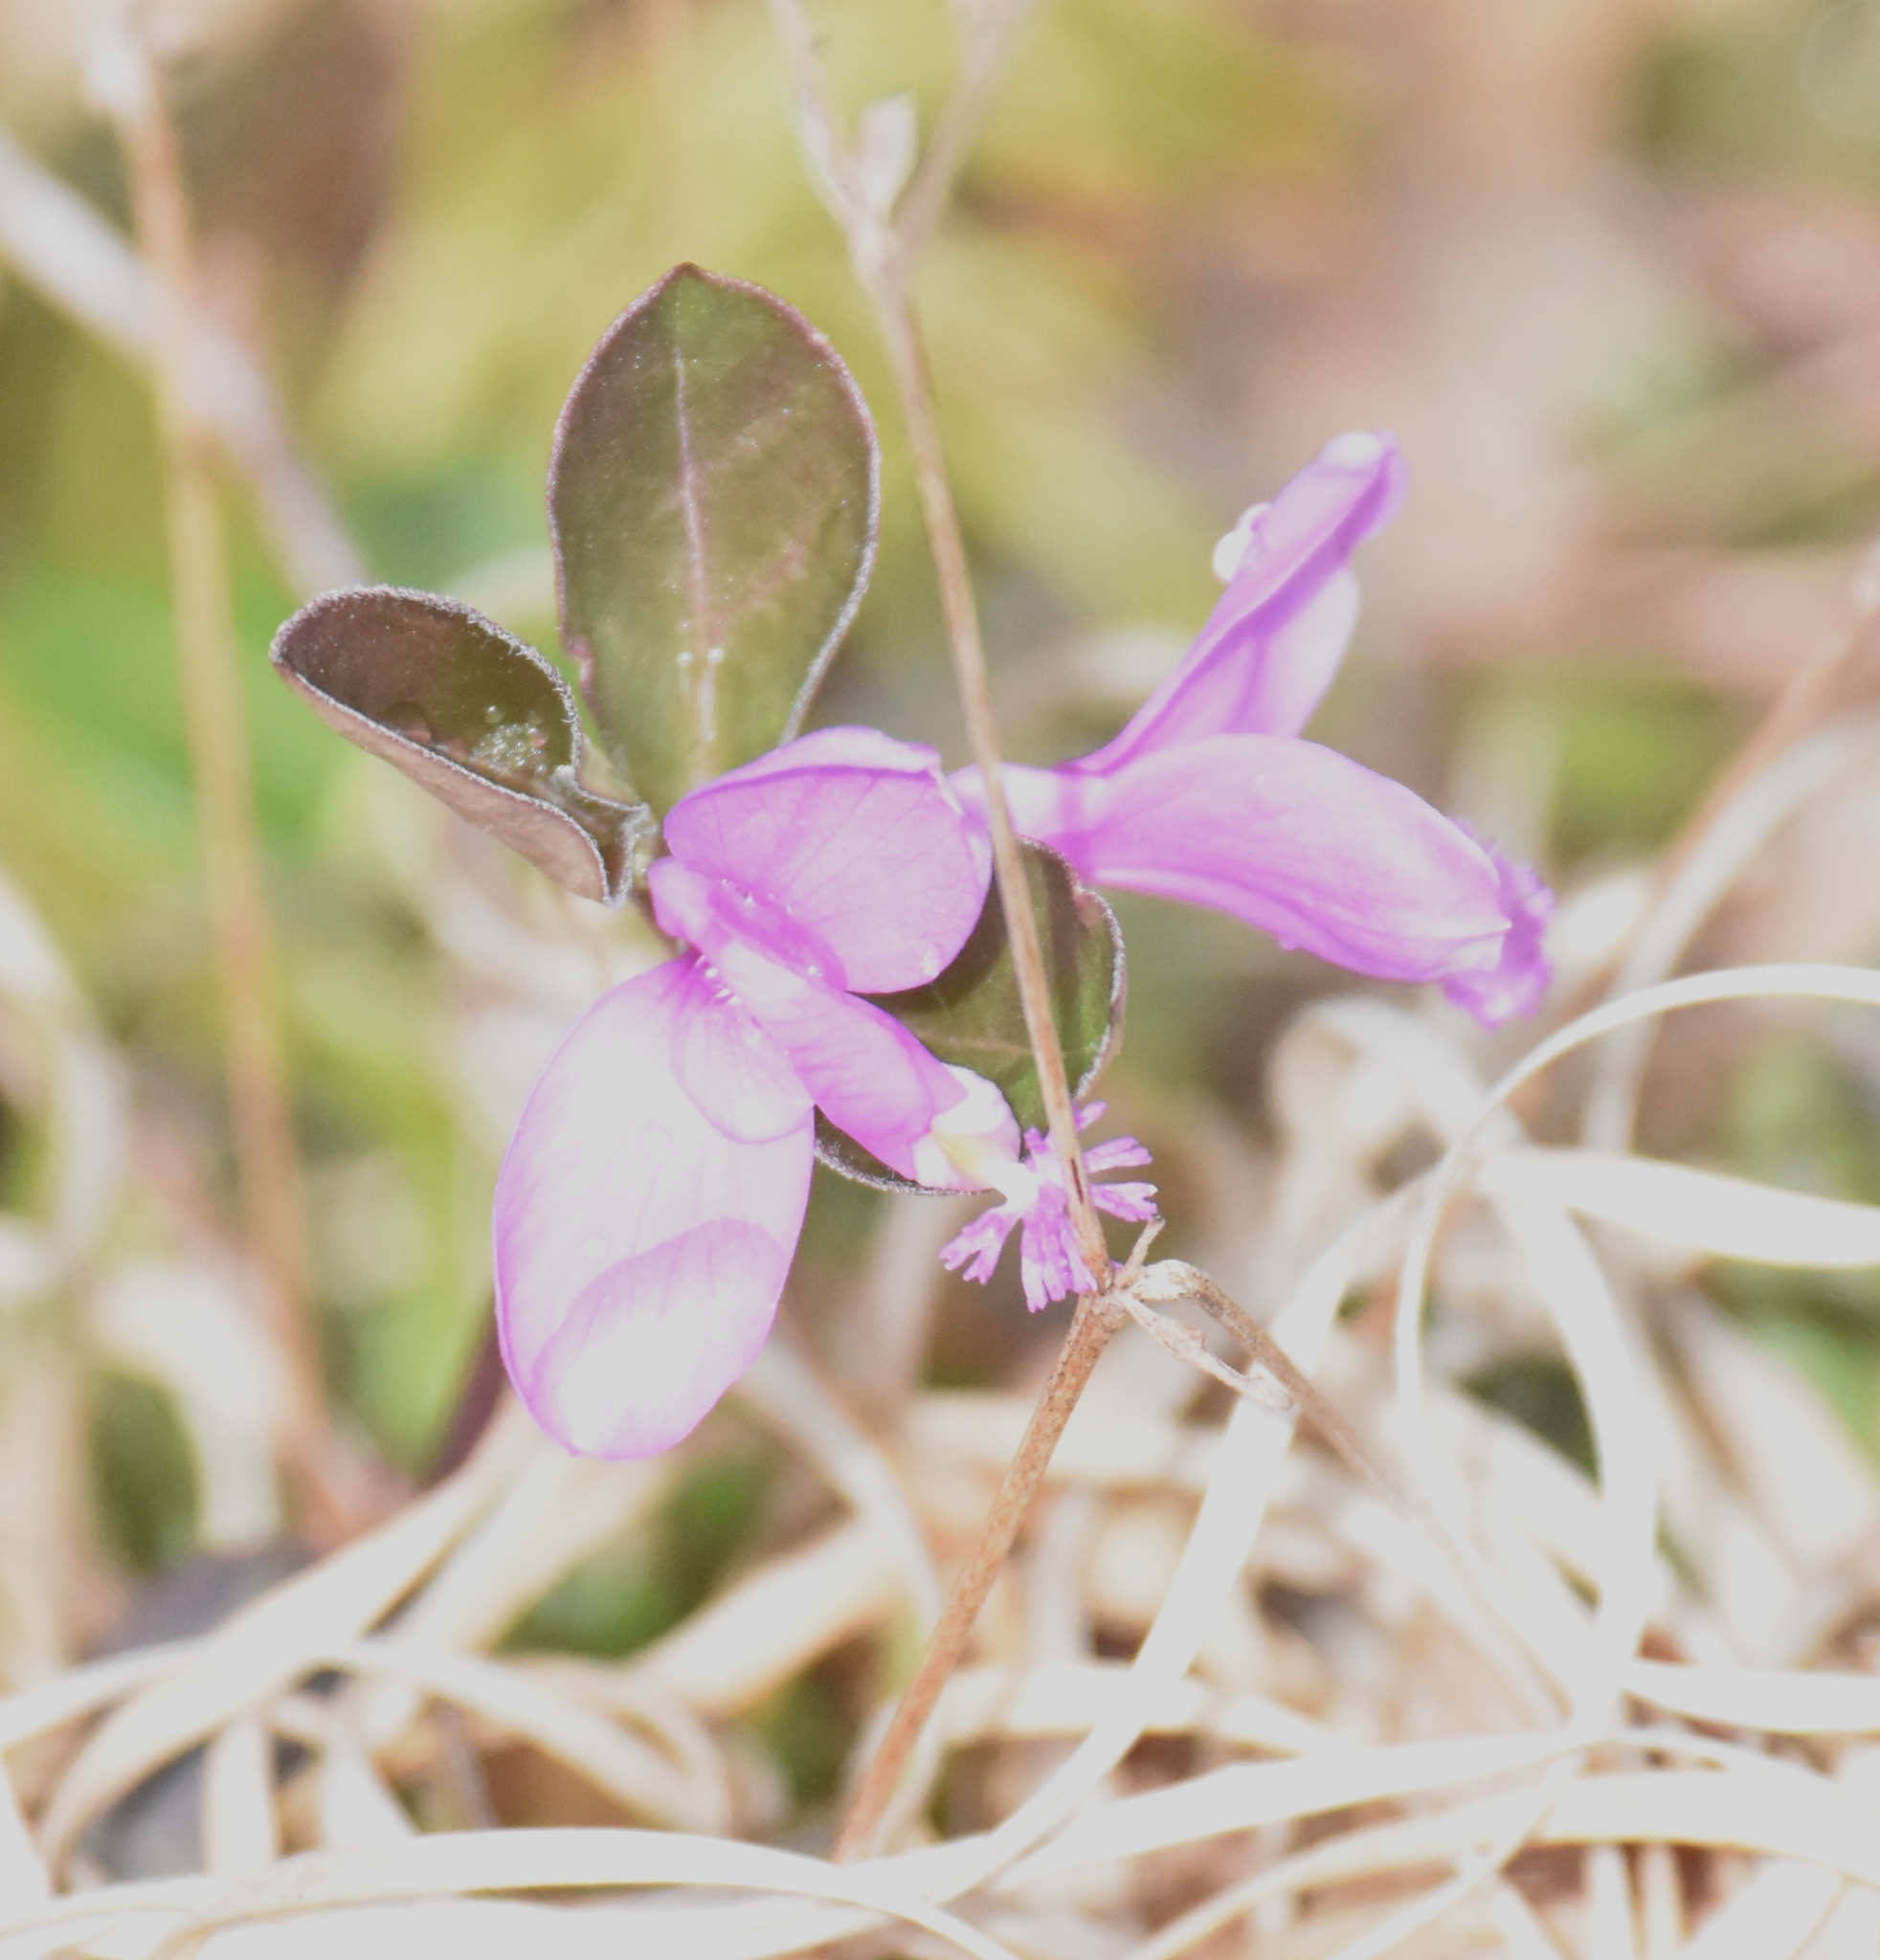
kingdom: Plantae
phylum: Tracheophyta
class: Magnoliopsida
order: Fabales
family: Polygalaceae
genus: Polygaloides
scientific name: Polygaloides paucifolia
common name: Bird-on-the-wing
